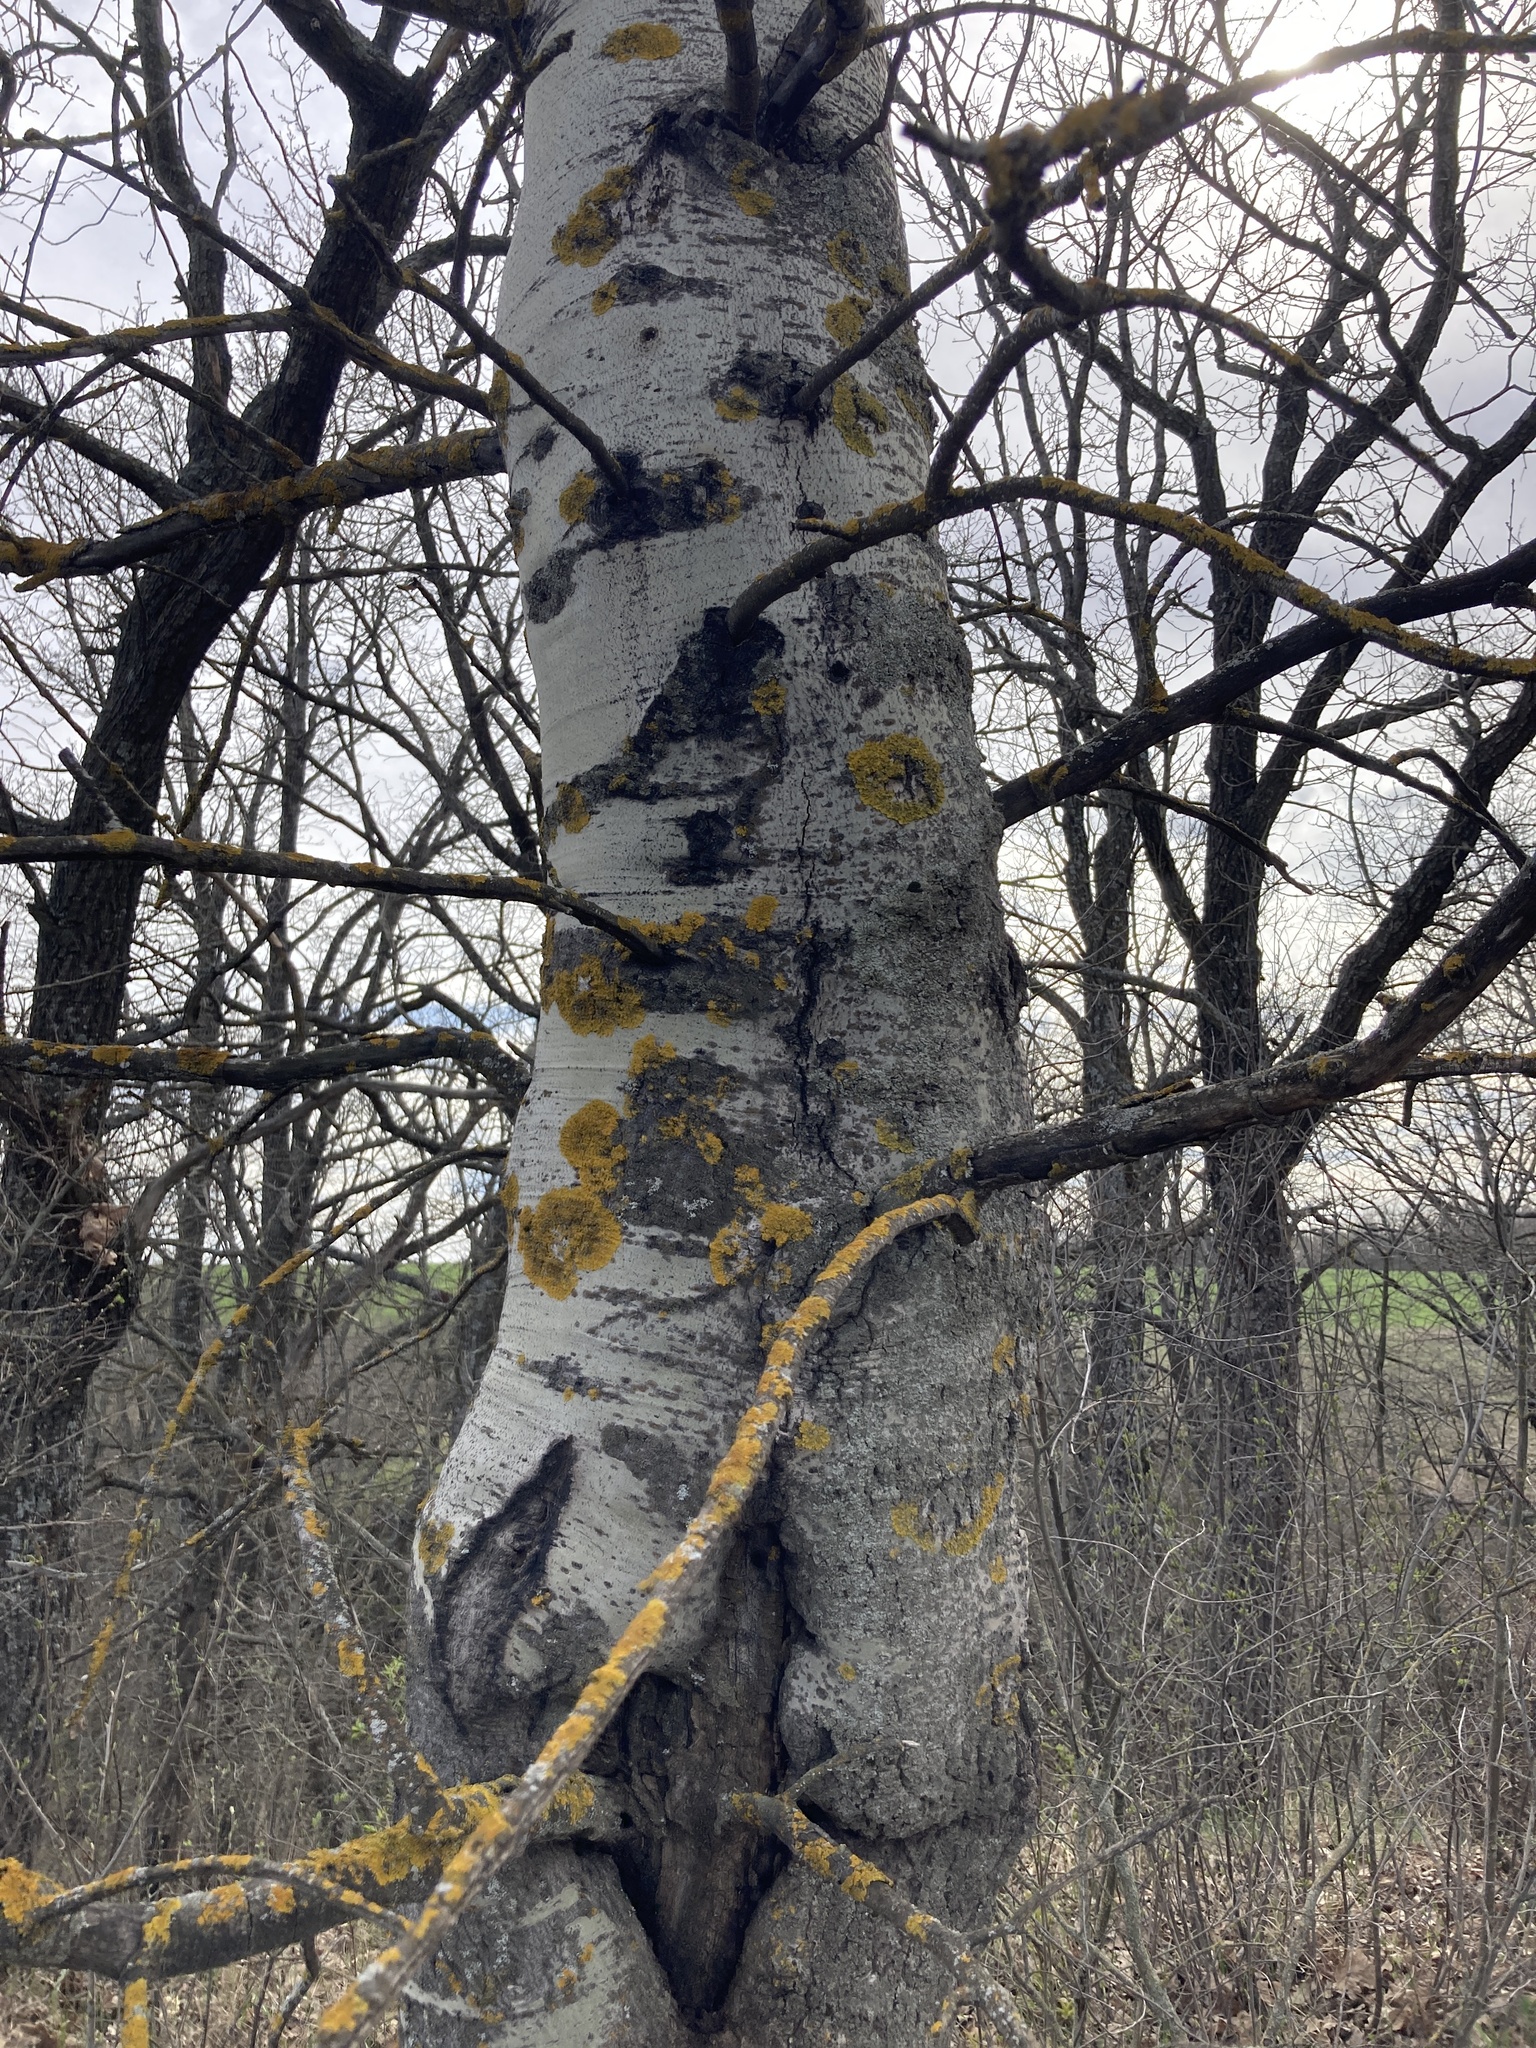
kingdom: Plantae
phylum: Tracheophyta
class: Magnoliopsida
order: Malpighiales
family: Salicaceae
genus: Populus
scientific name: Populus tremula
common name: European aspen
